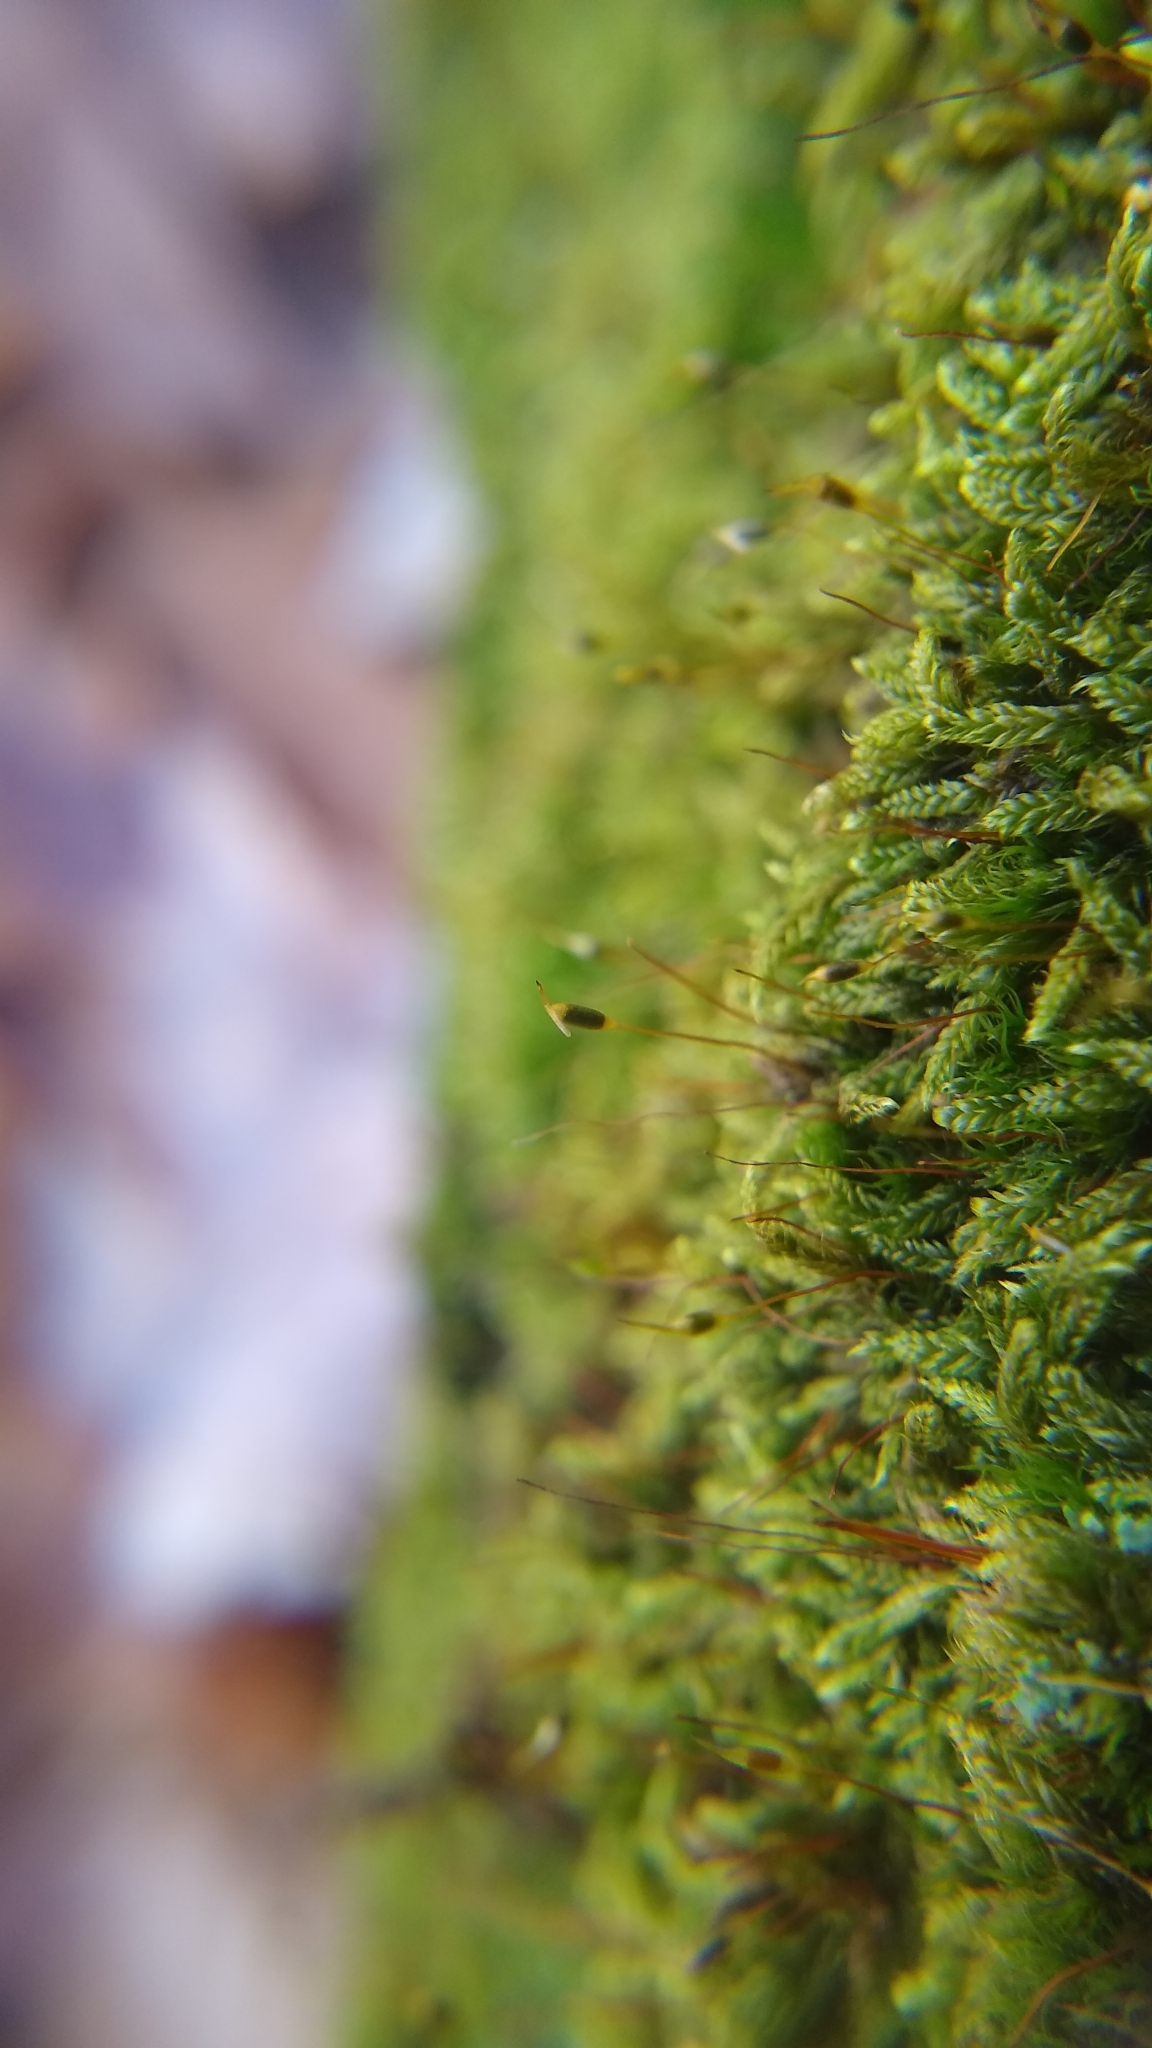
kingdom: Plantae
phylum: Bryophyta
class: Bryopsida
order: Hypnales
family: Pylaisiadelphaceae
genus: Pylaisiadelpha
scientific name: Pylaisiadelpha tenuirostris
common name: Pylaisiadelpha moss
